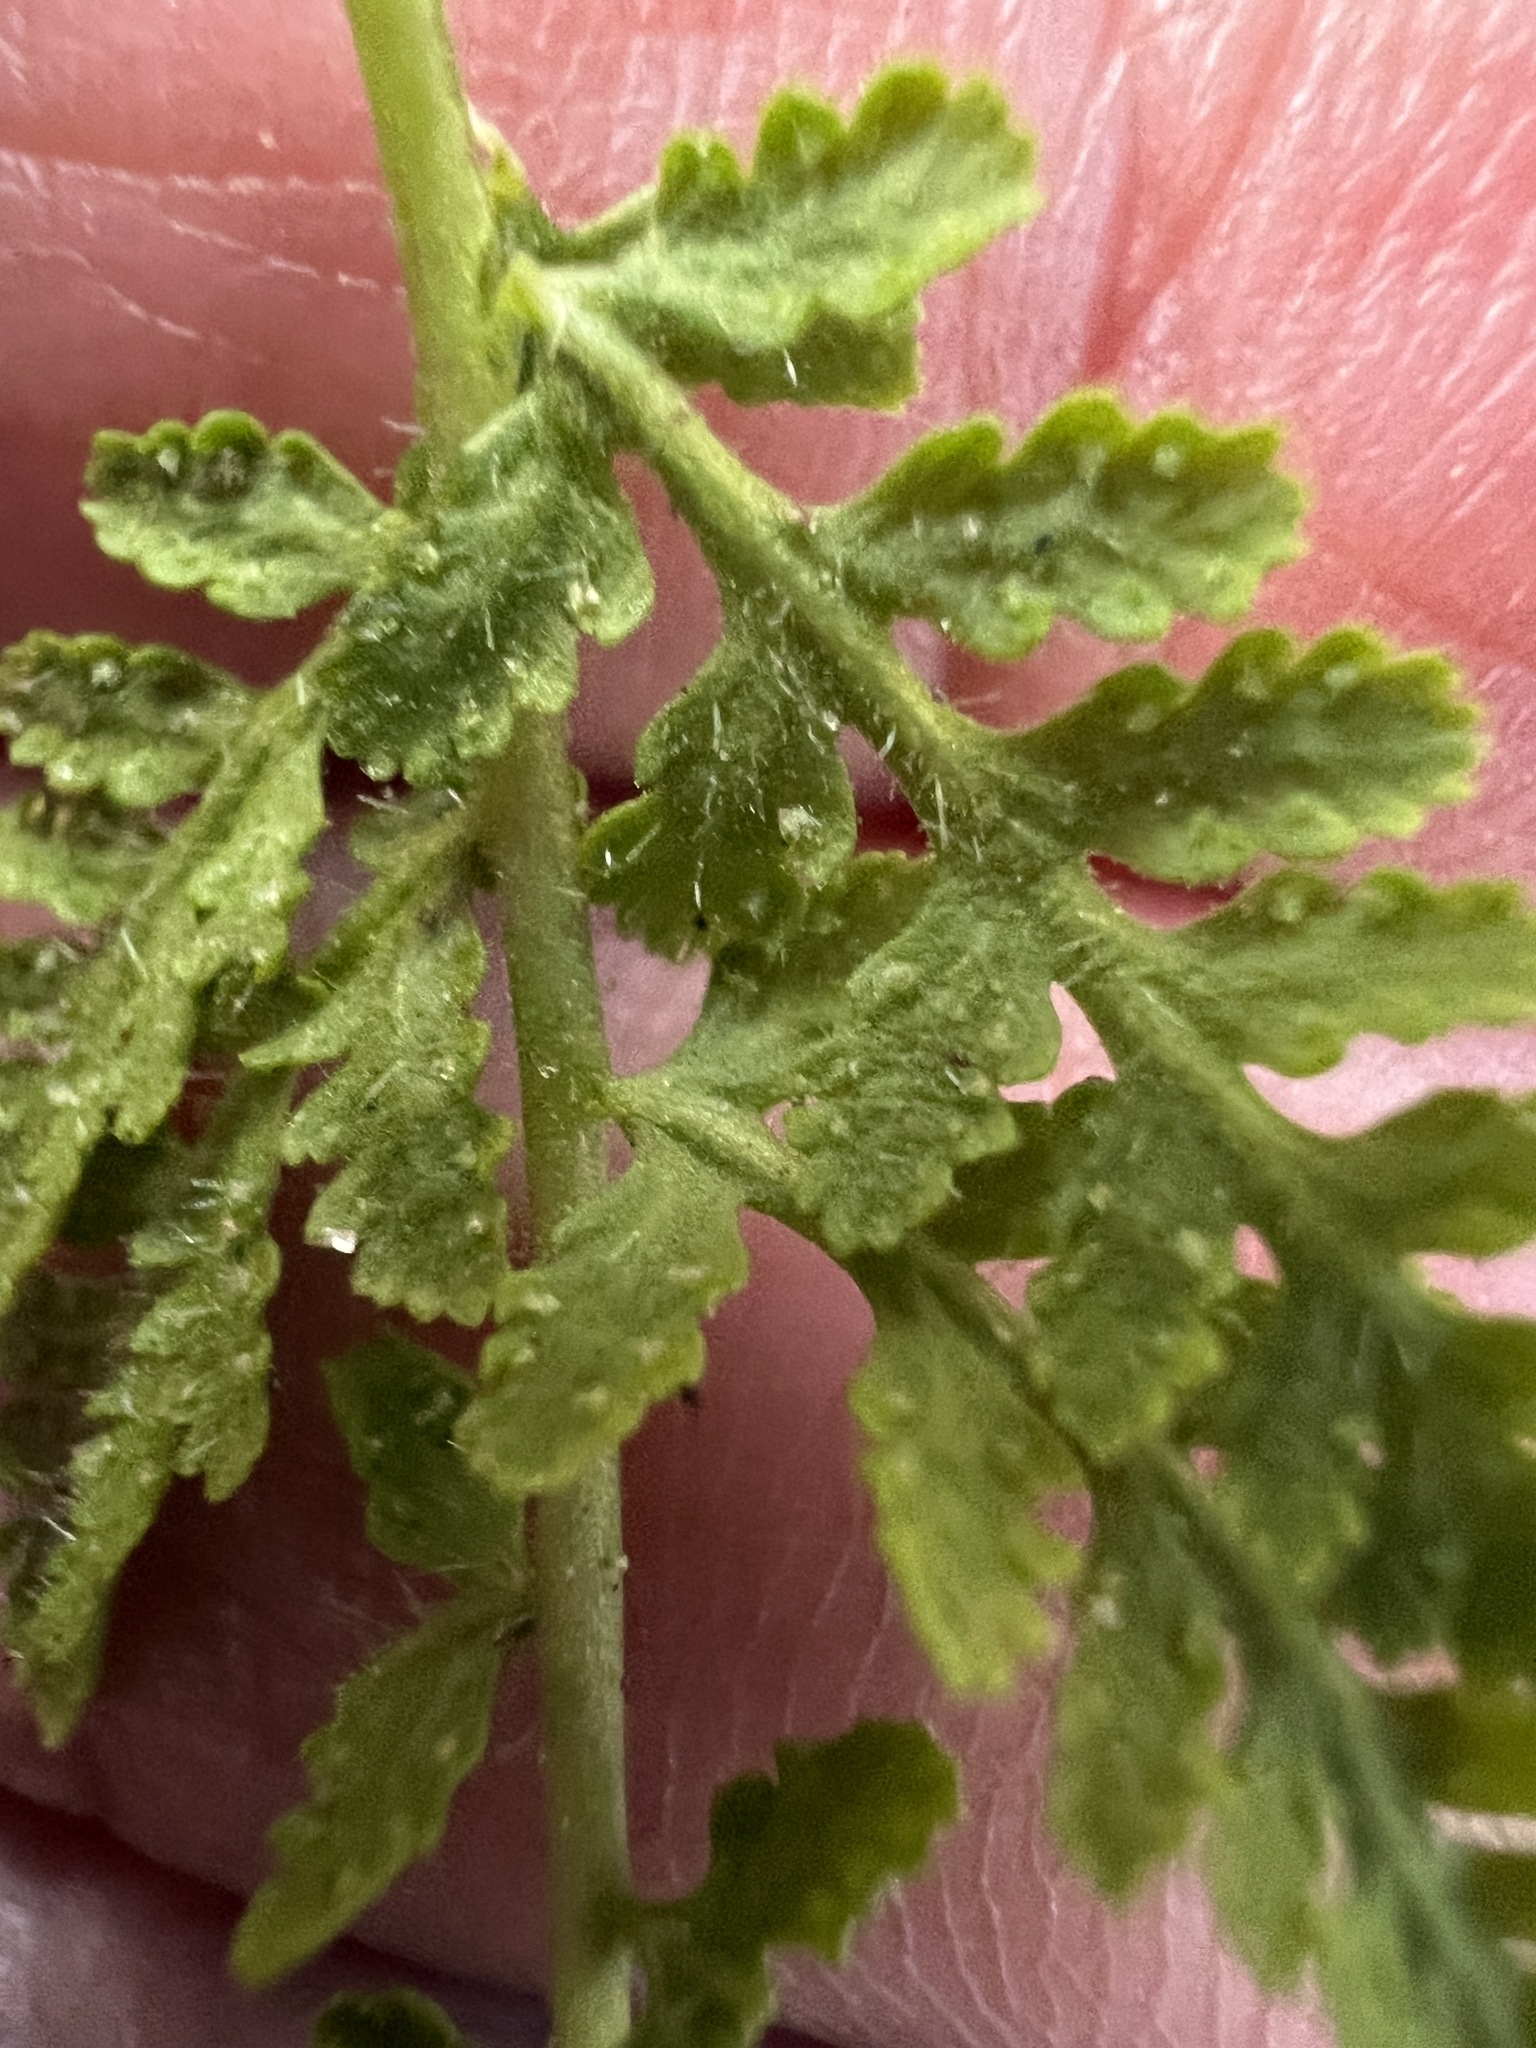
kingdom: Plantae
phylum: Tracheophyta
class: Polypodiopsida
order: Polypodiales
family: Woodsiaceae
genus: Physematium
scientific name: Physematium scopulinum
